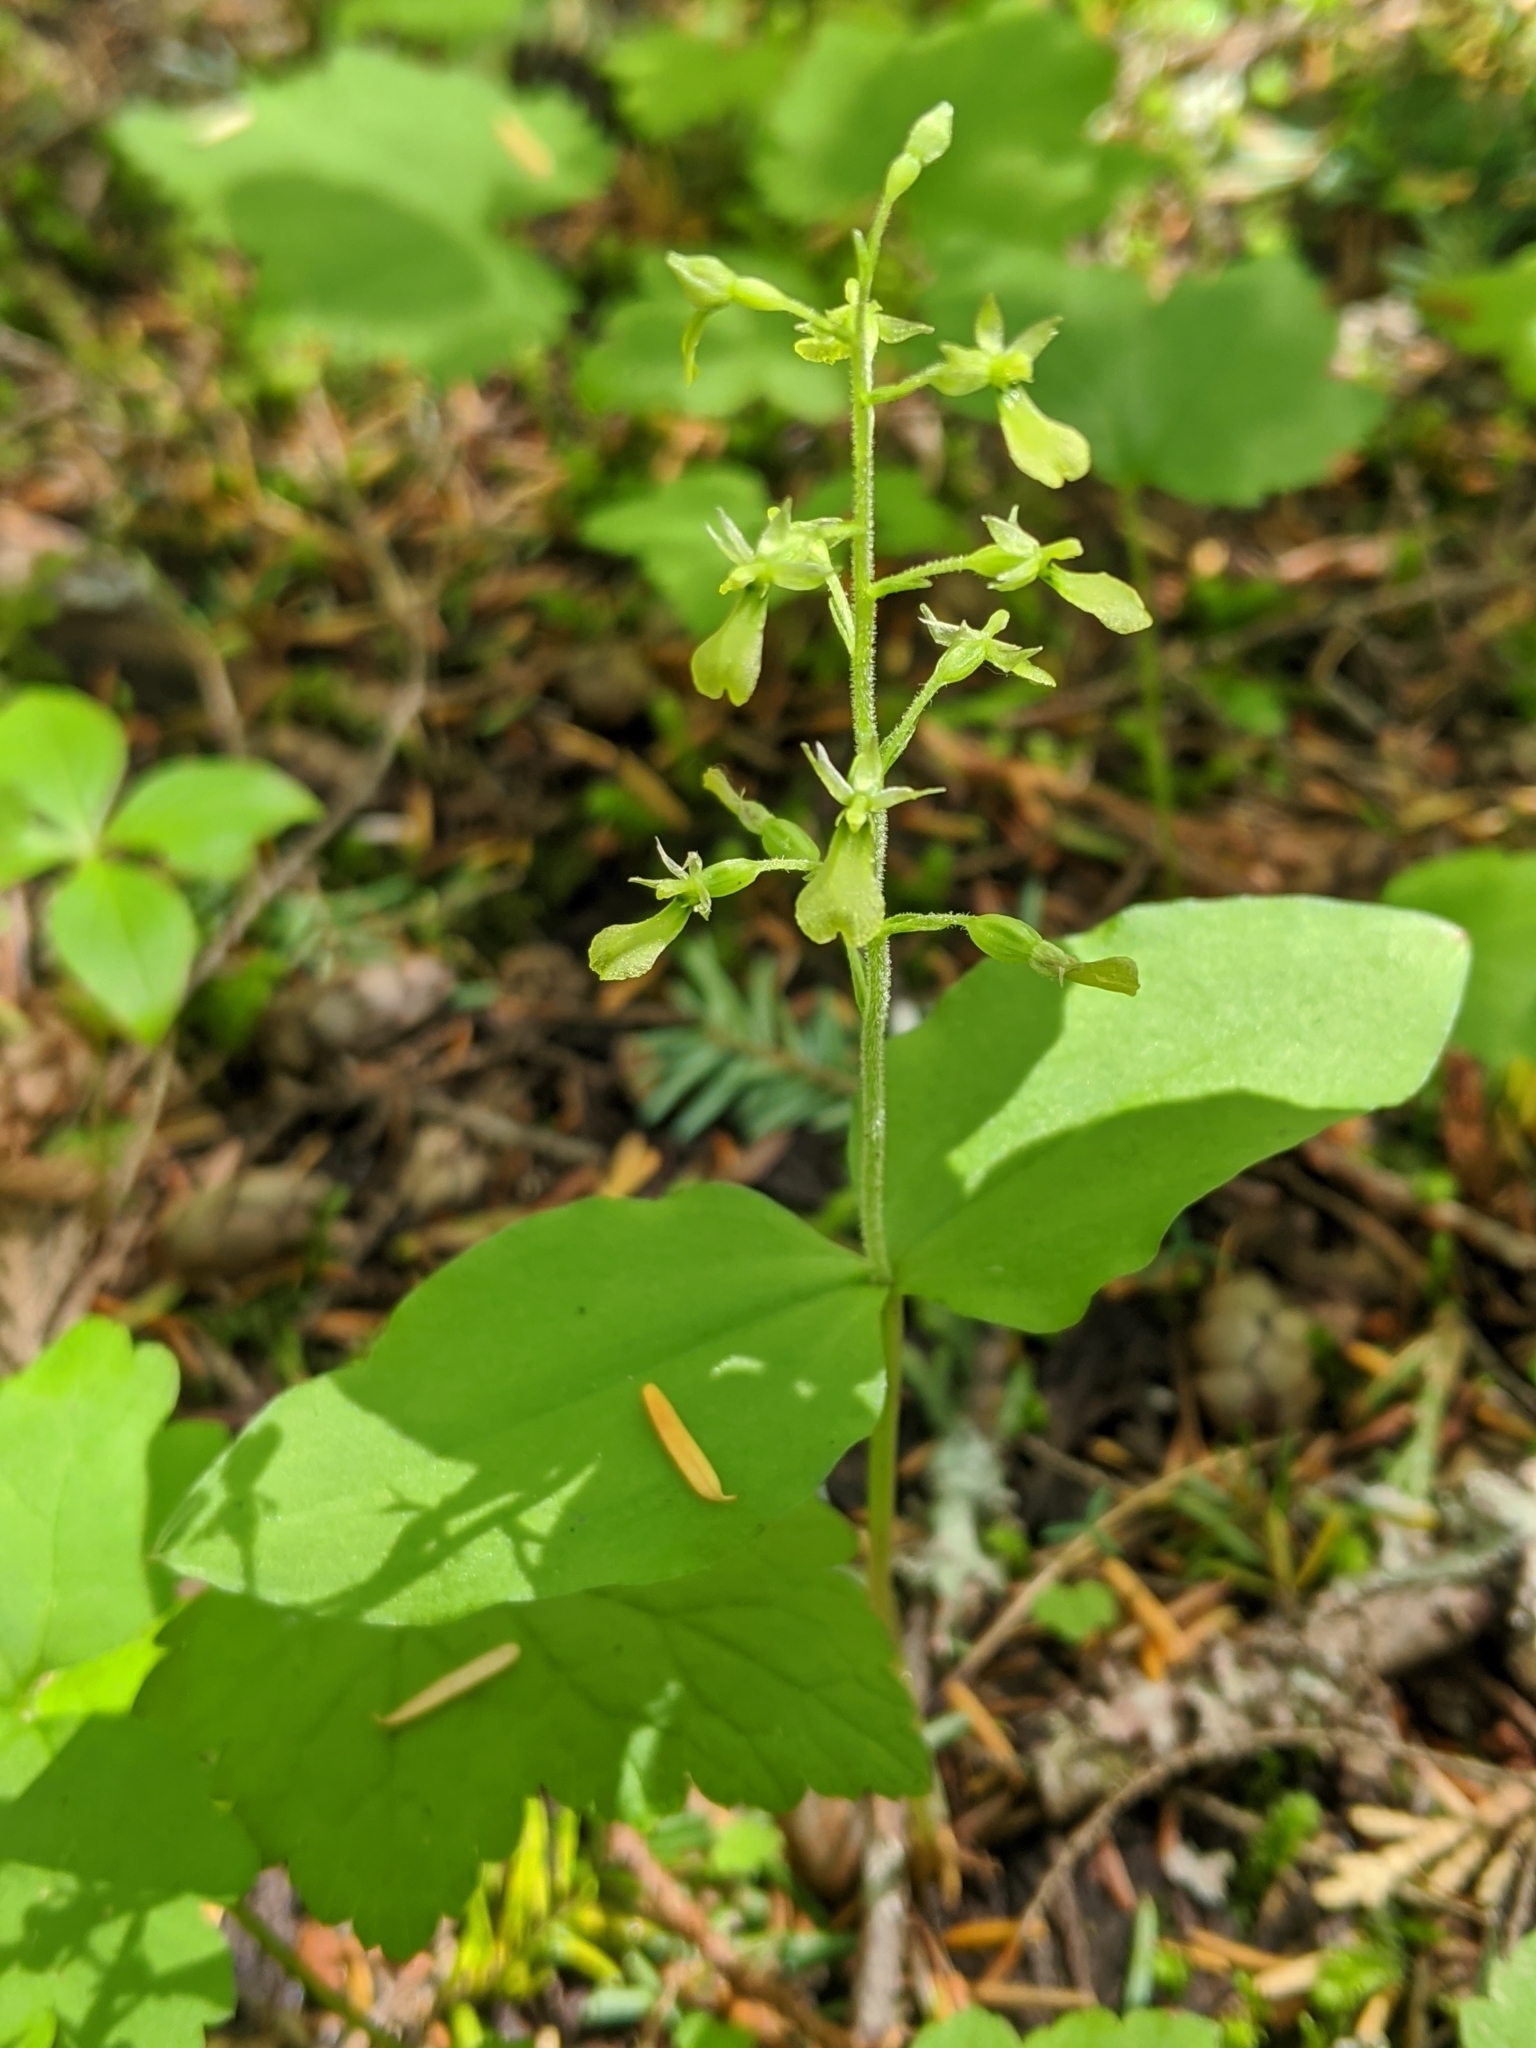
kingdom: Plantae
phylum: Tracheophyta
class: Liliopsida
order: Asparagales
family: Orchidaceae
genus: Neottia
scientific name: Neottia banksiana
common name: Northwestern twayblade
